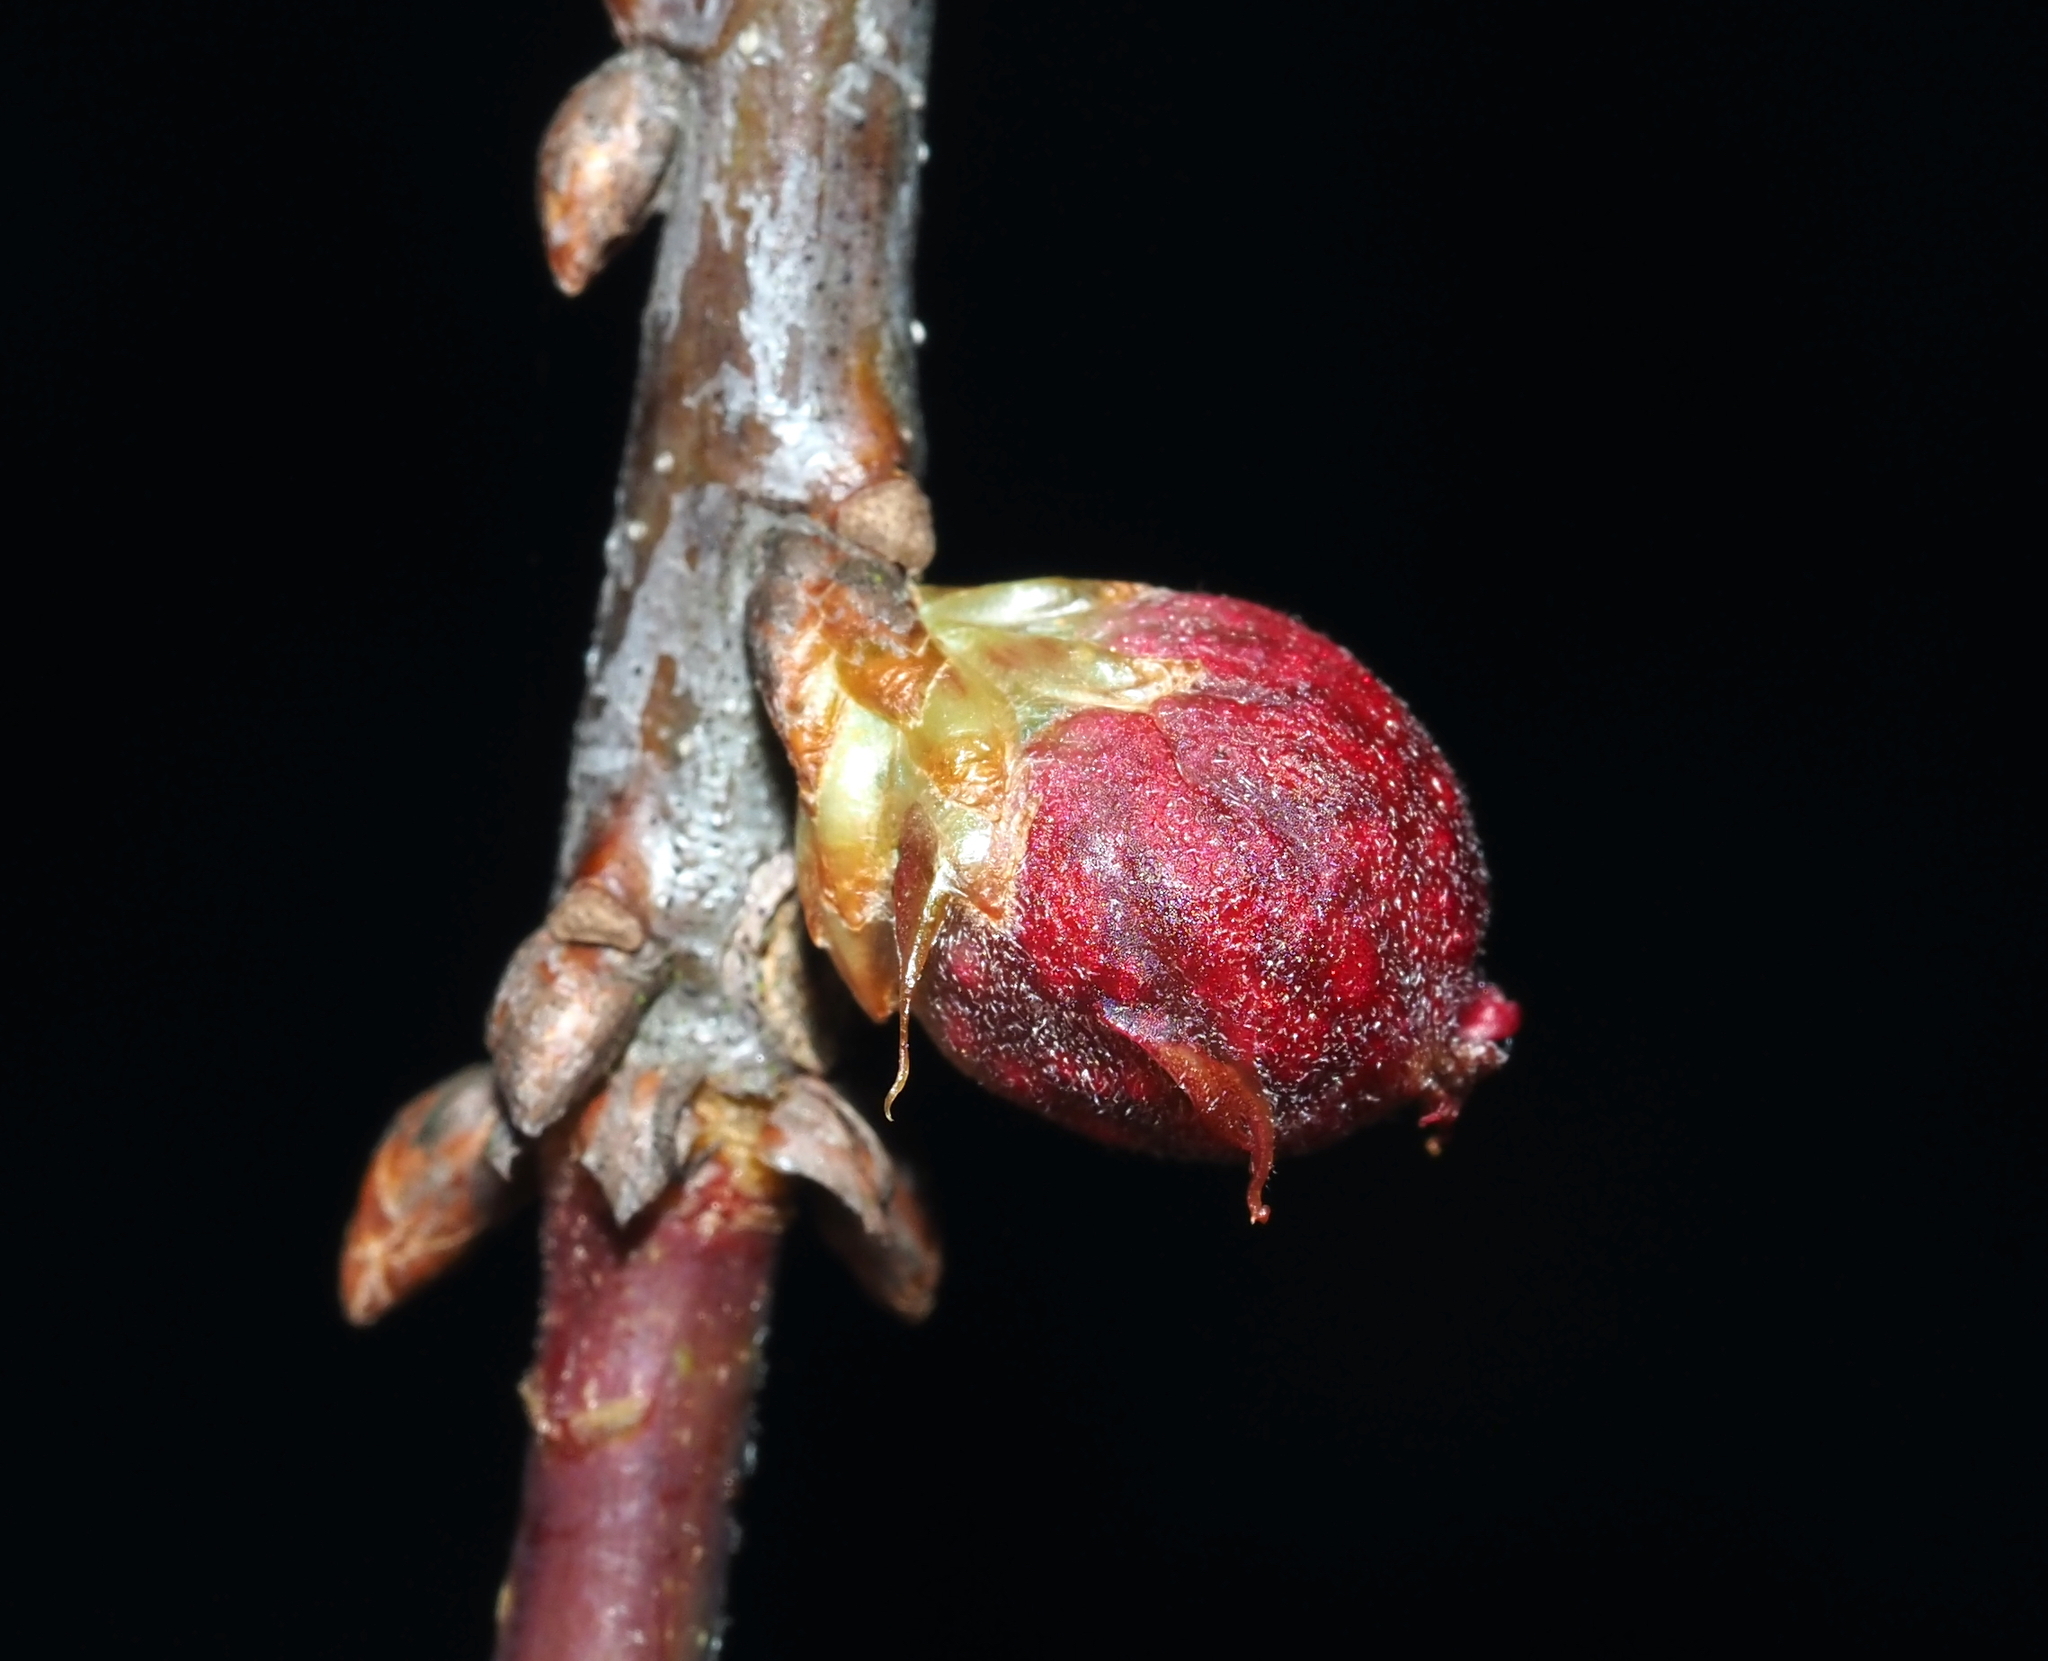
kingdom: Animalia
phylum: Arthropoda
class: Insecta
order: Hymenoptera
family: Cynipidae
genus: Dryocosmus
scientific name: Dryocosmus quercuspalustris
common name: Succulent oak gall wasp
